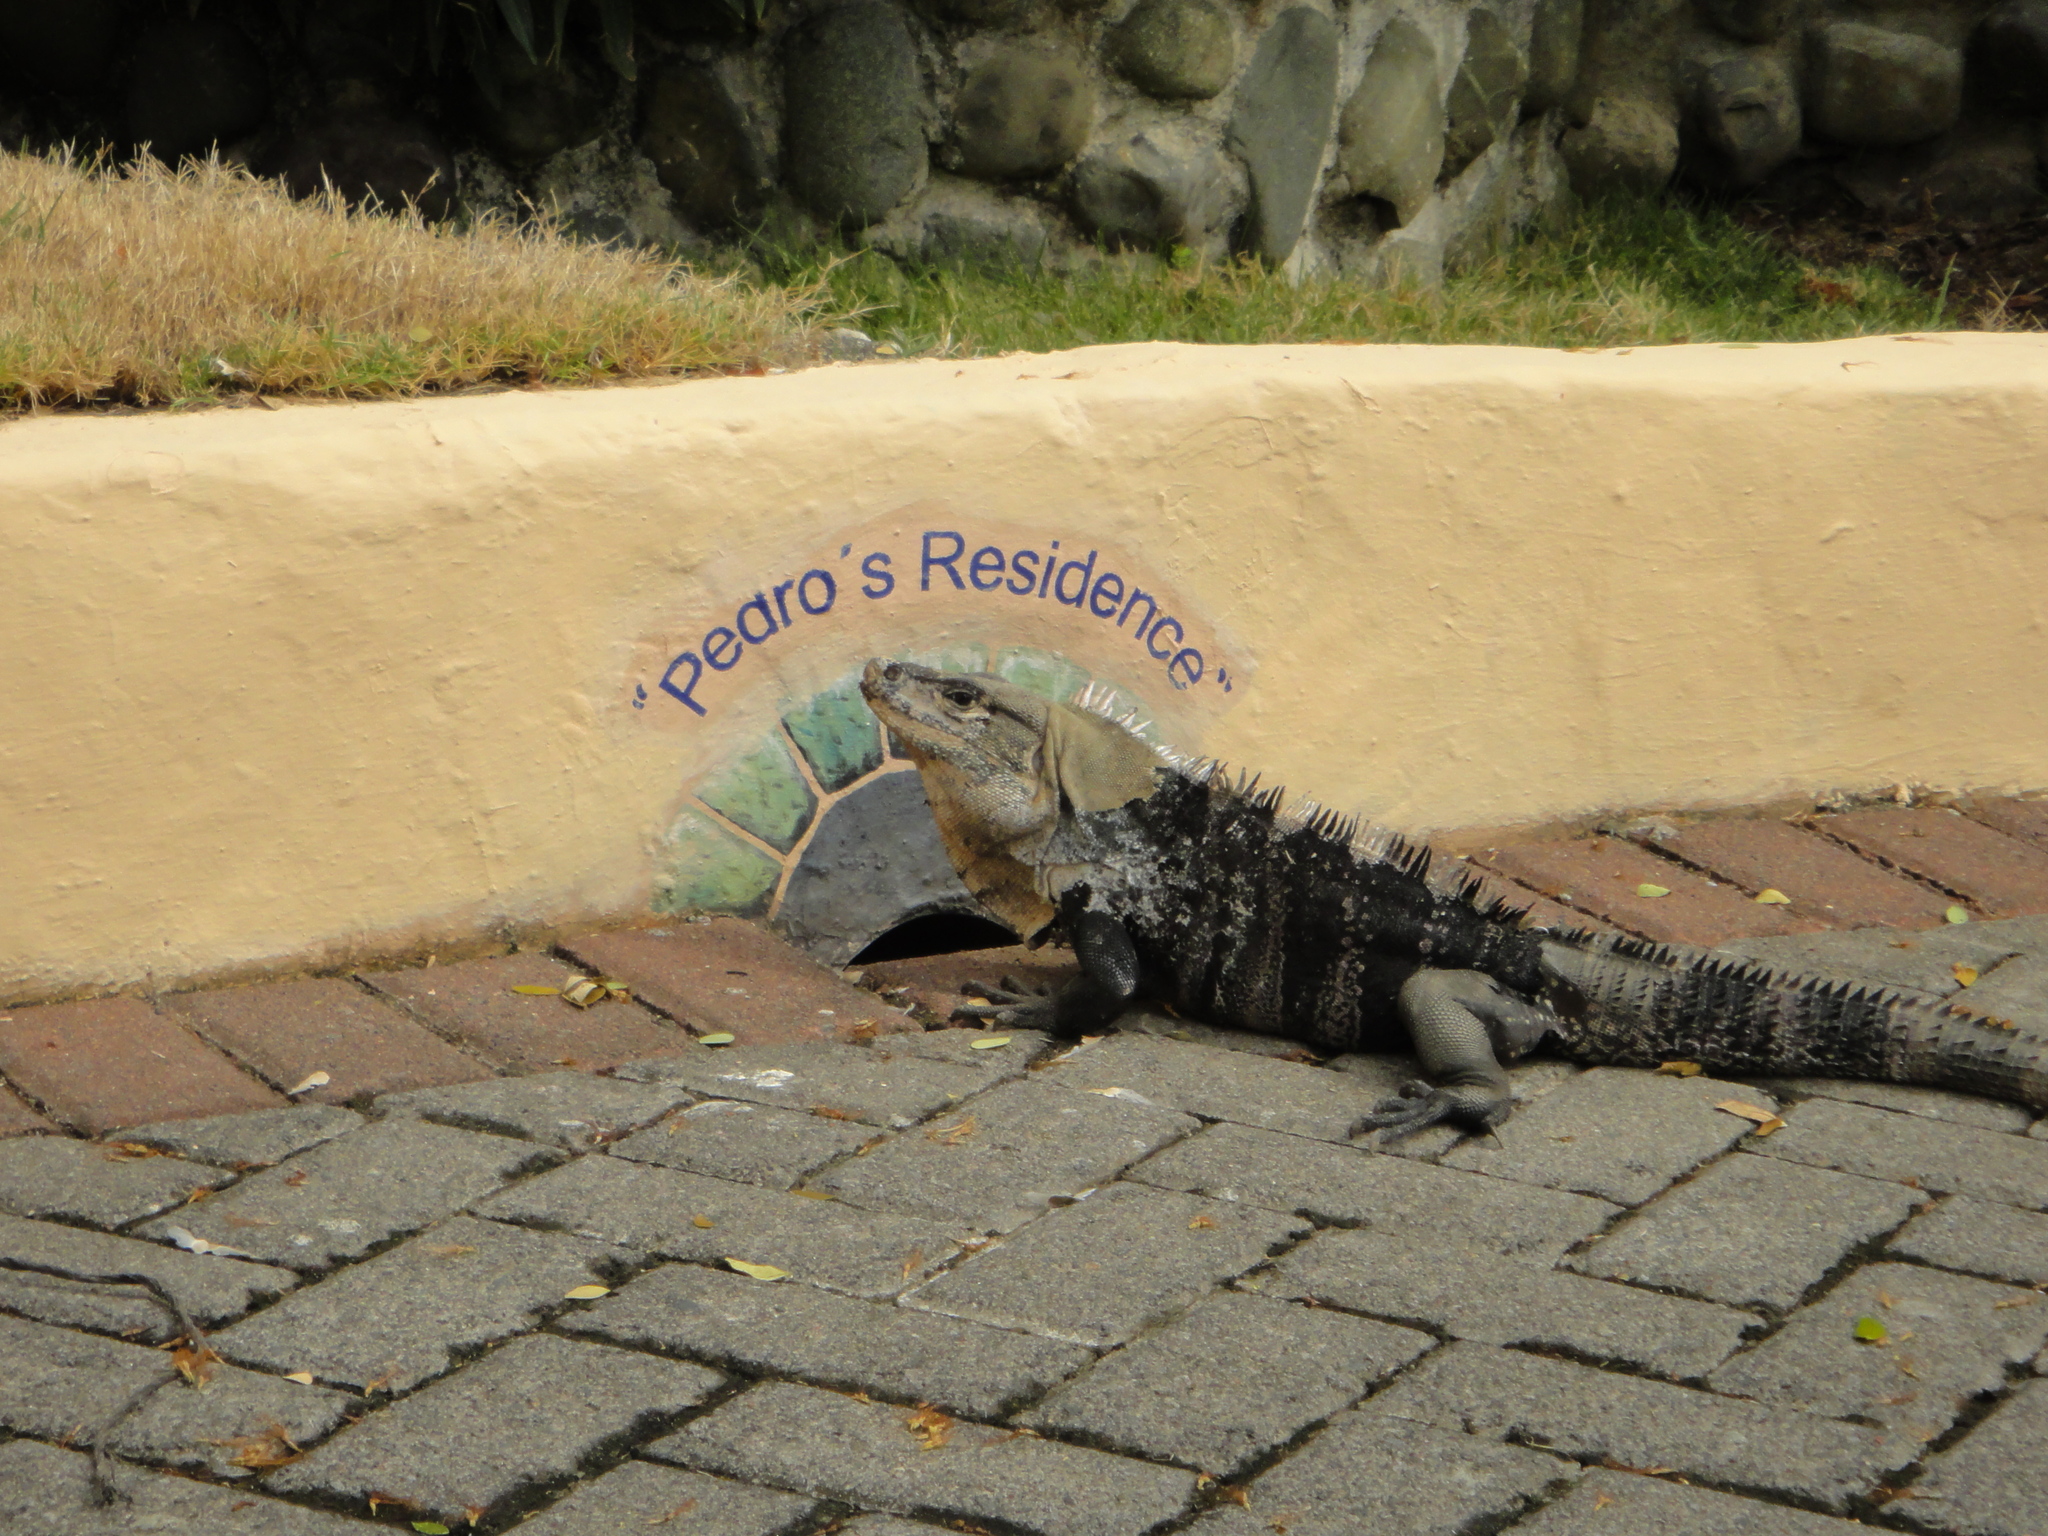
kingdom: Animalia
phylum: Chordata
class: Squamata
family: Iguanidae
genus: Ctenosaura
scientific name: Ctenosaura similis
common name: Black spiny-tailed iguana
